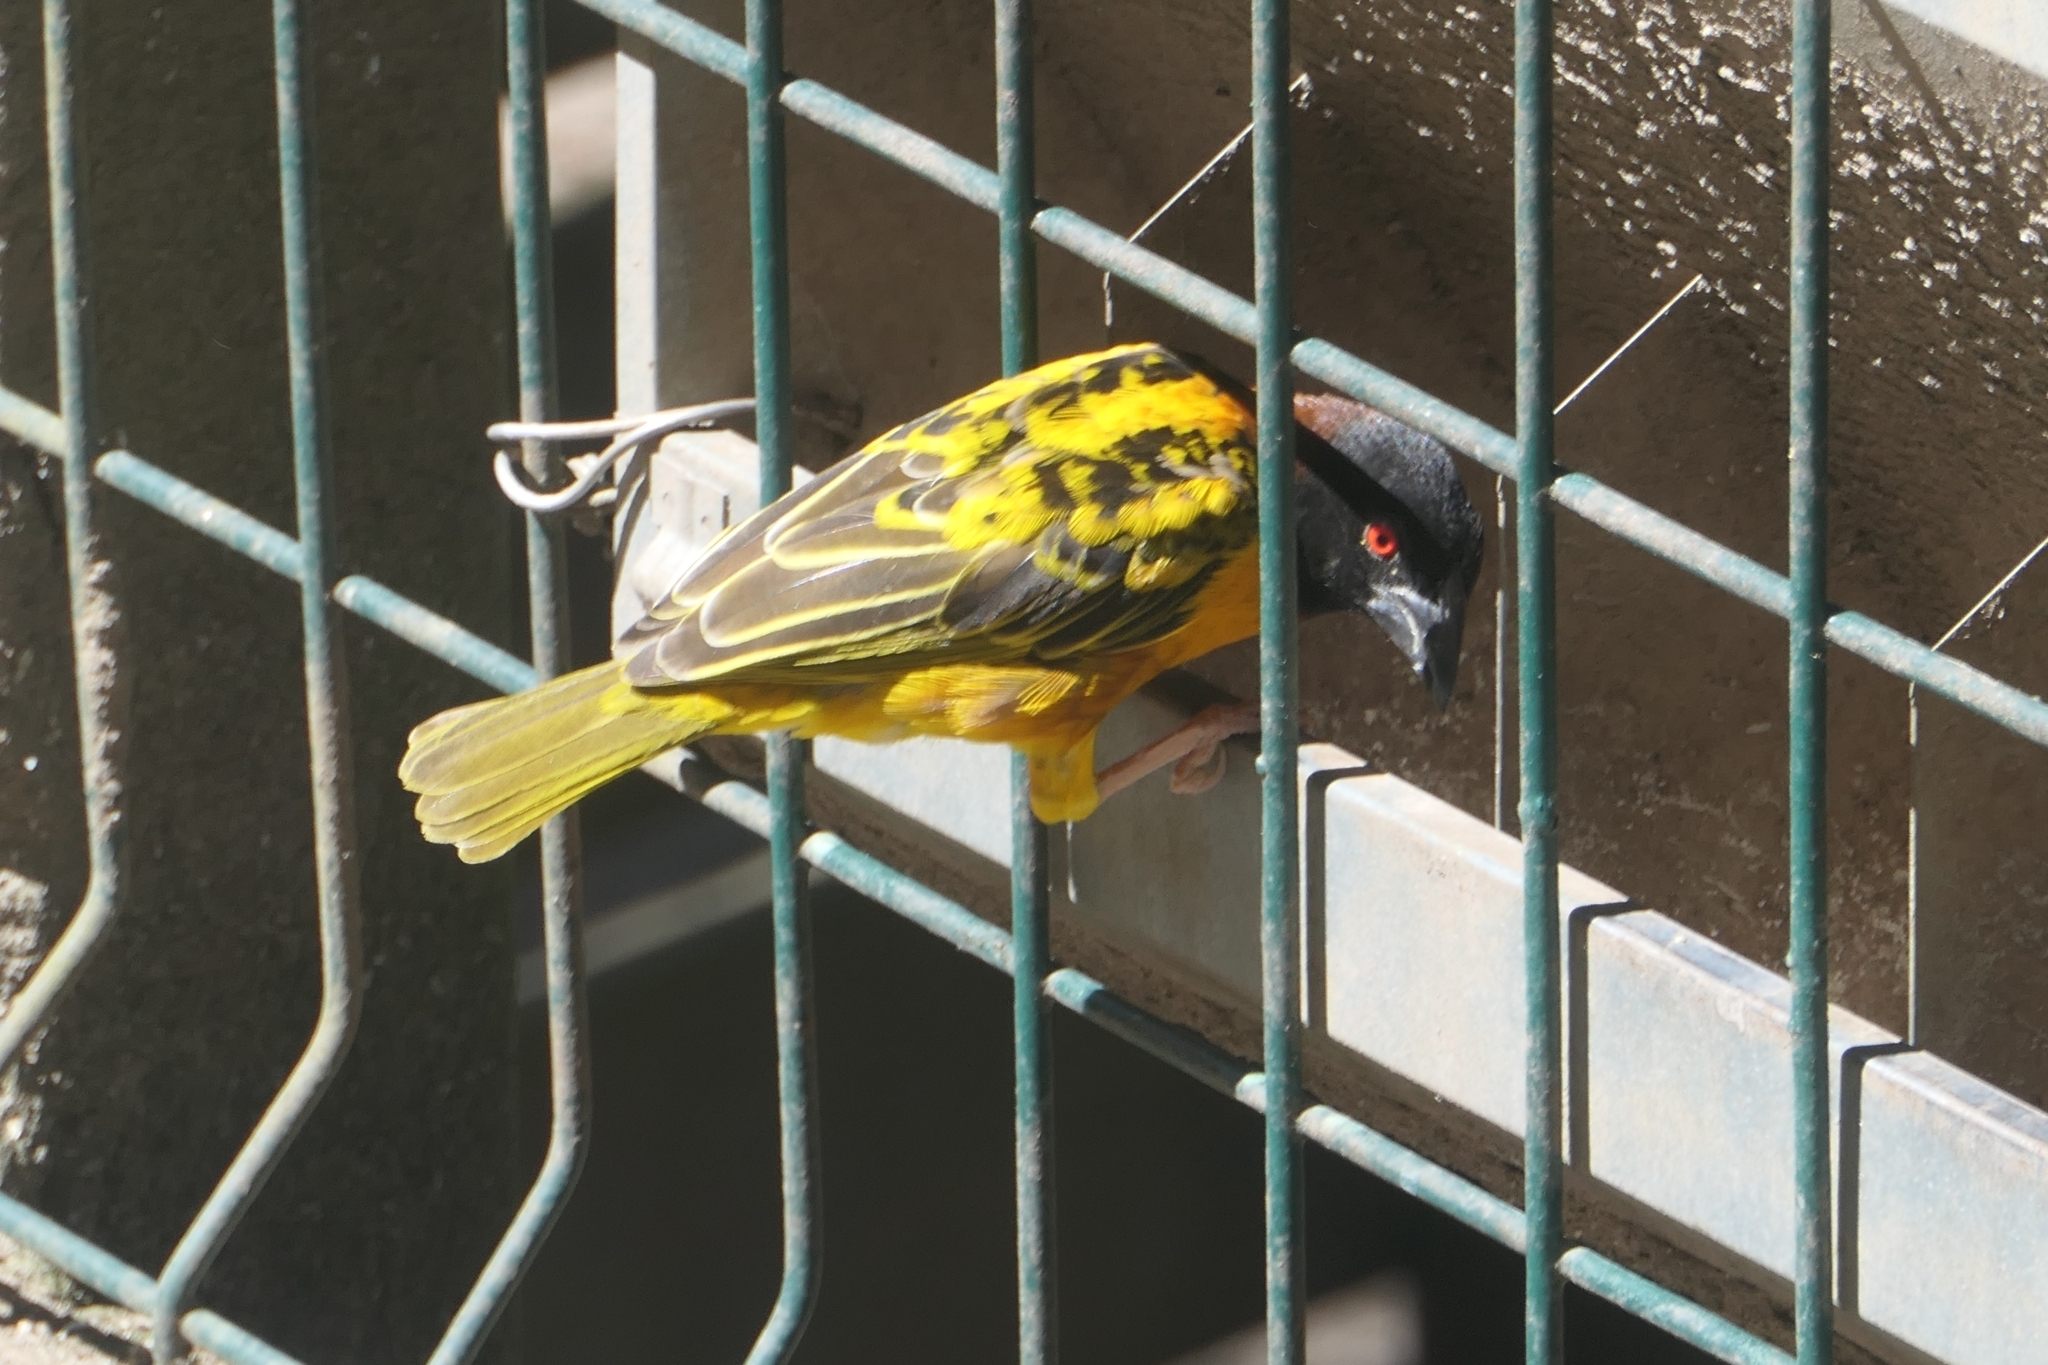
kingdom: Animalia
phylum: Chordata
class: Aves
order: Passeriformes
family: Ploceidae
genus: Ploceus
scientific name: Ploceus cucullatus
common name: Village weaver
